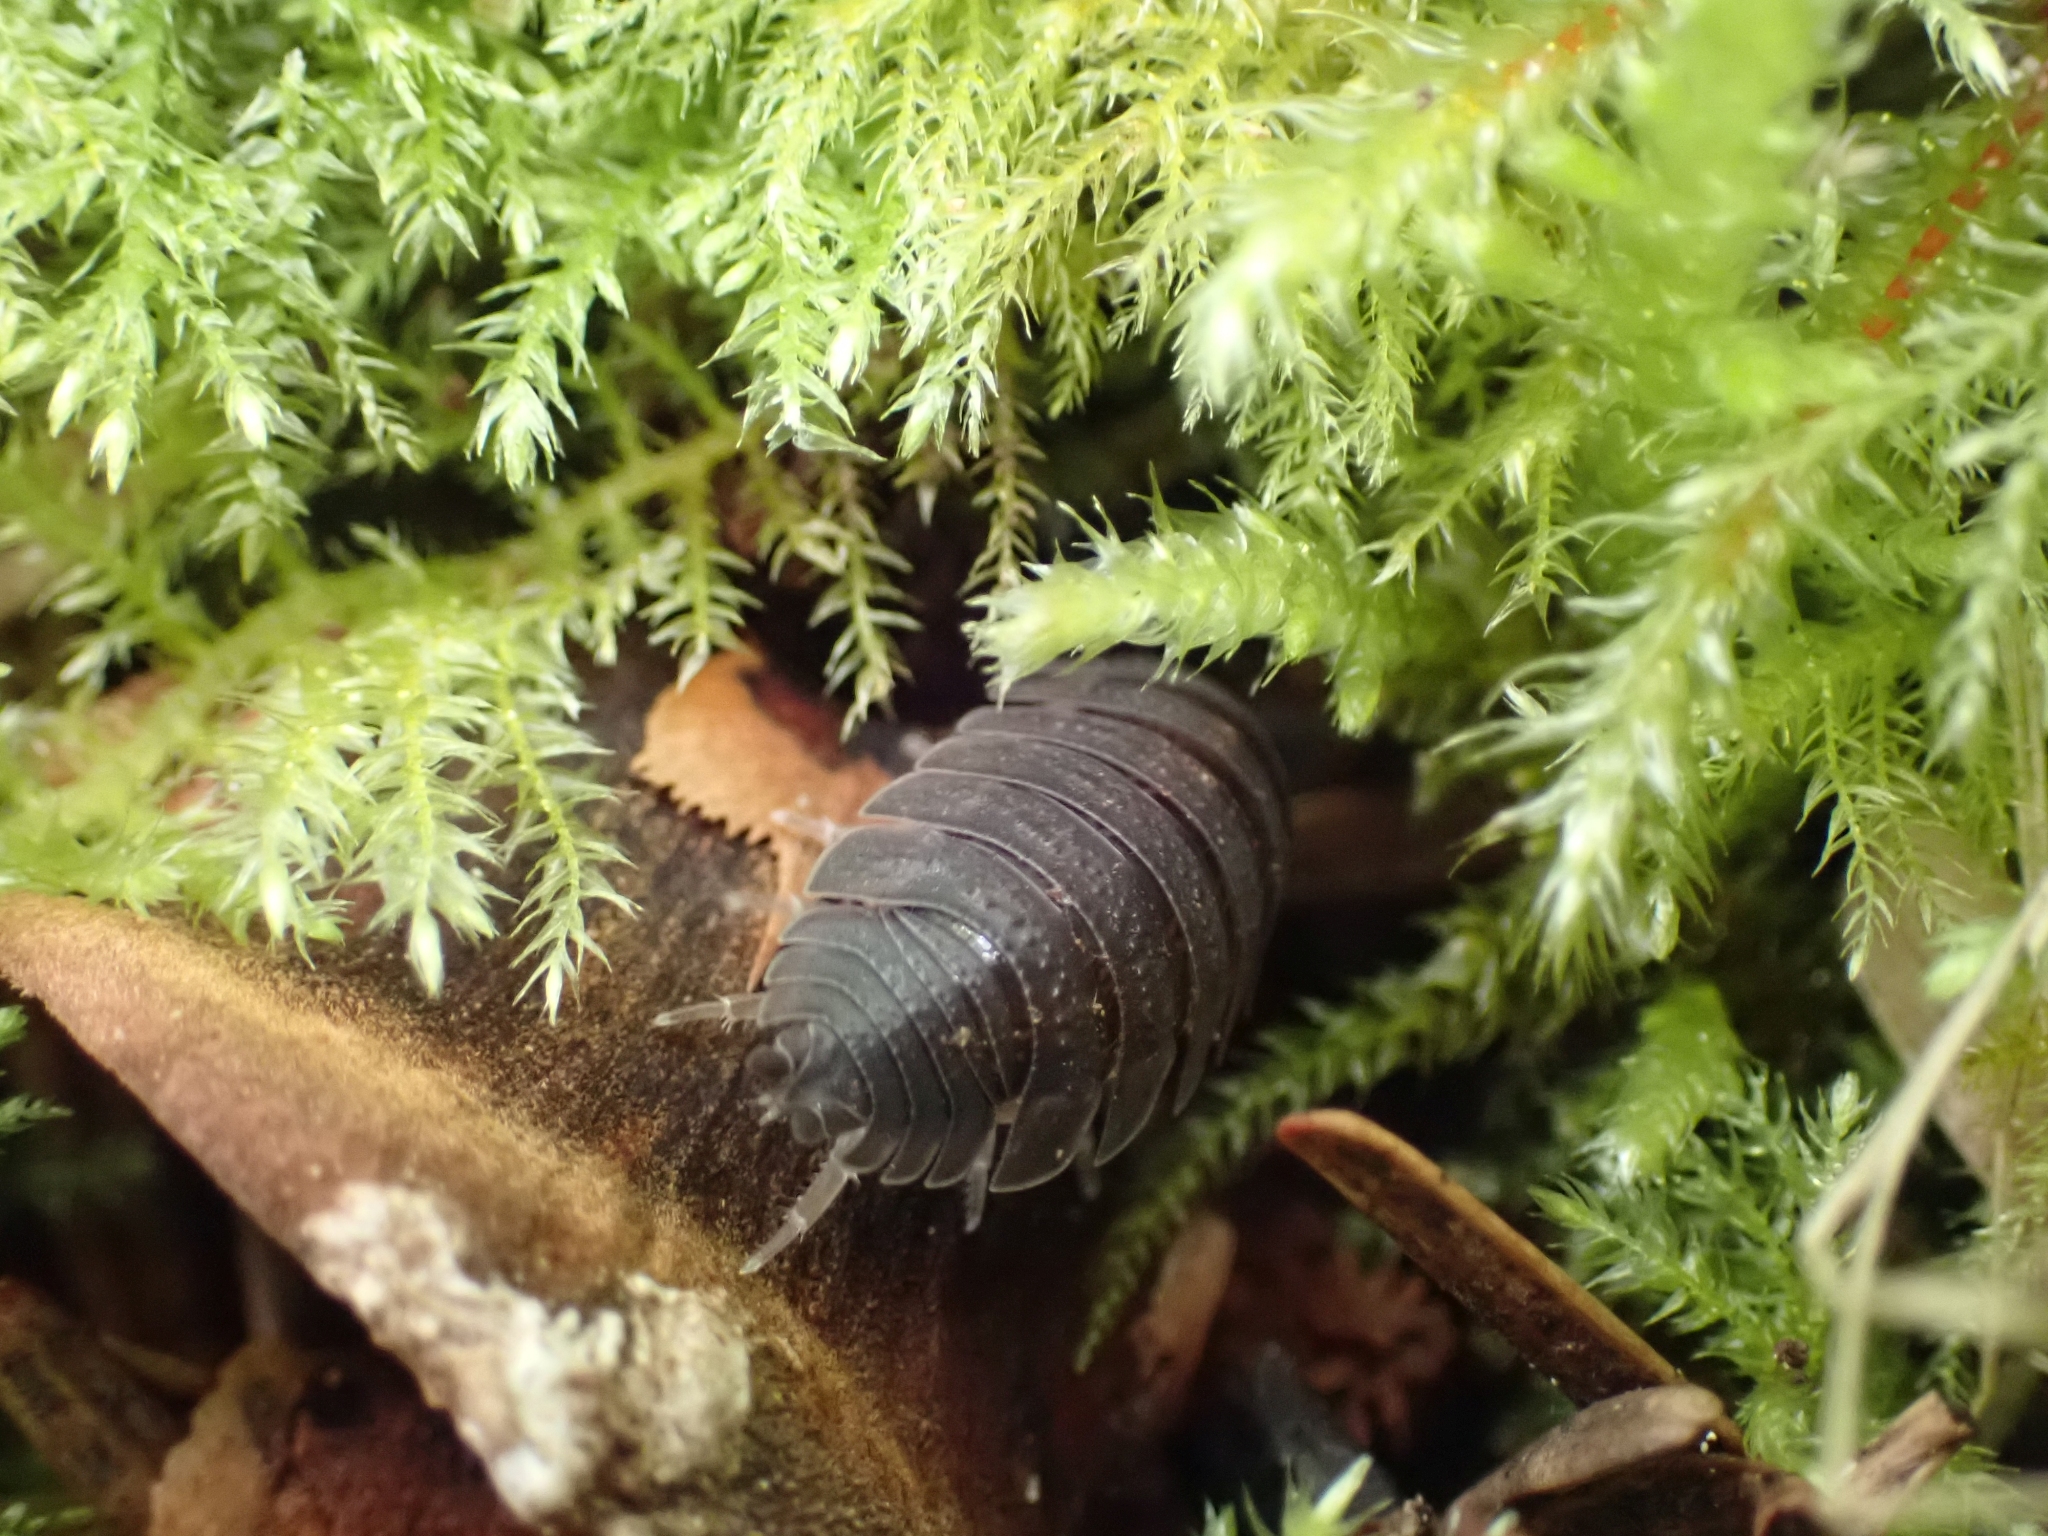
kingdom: Animalia
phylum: Arthropoda
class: Malacostraca
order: Isopoda
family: Porcellionidae
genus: Porcellio
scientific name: Porcellio scaber
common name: Common rough woodlouse
